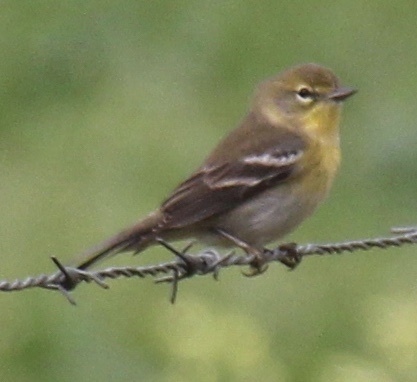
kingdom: Animalia
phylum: Chordata
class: Aves
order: Passeriformes
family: Parulidae
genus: Setophaga
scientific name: Setophaga pinus
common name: Pine warbler
